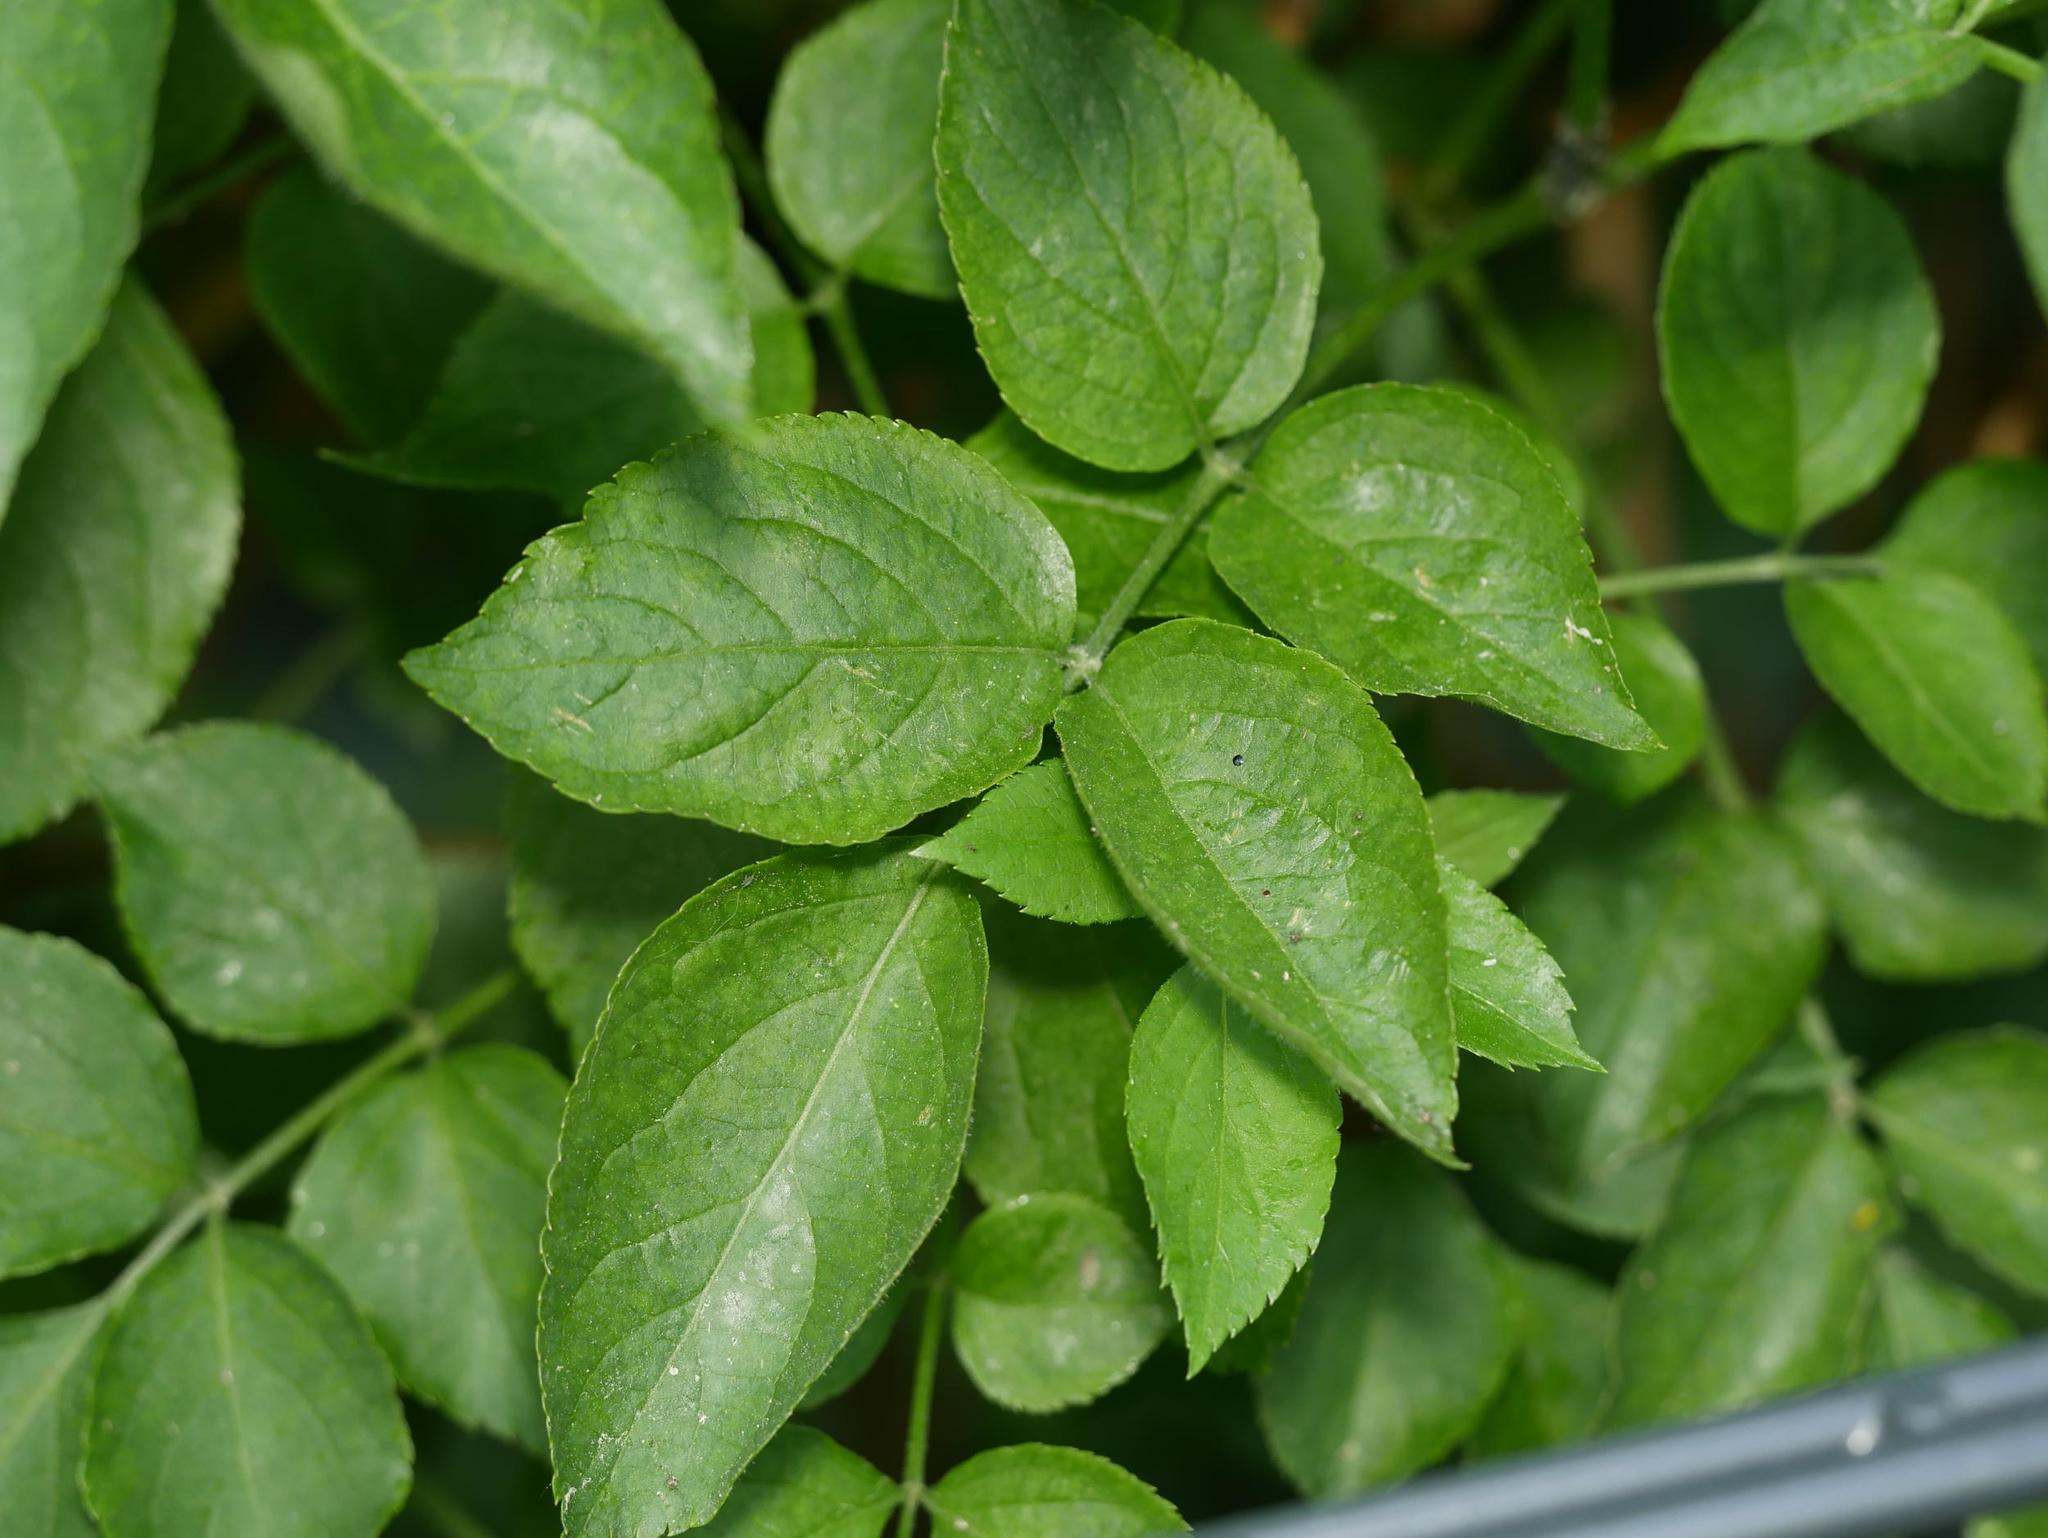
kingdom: Plantae
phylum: Tracheophyta
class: Magnoliopsida
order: Dipsacales
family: Viburnaceae
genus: Sambucus
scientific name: Sambucus nigra
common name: Elder
